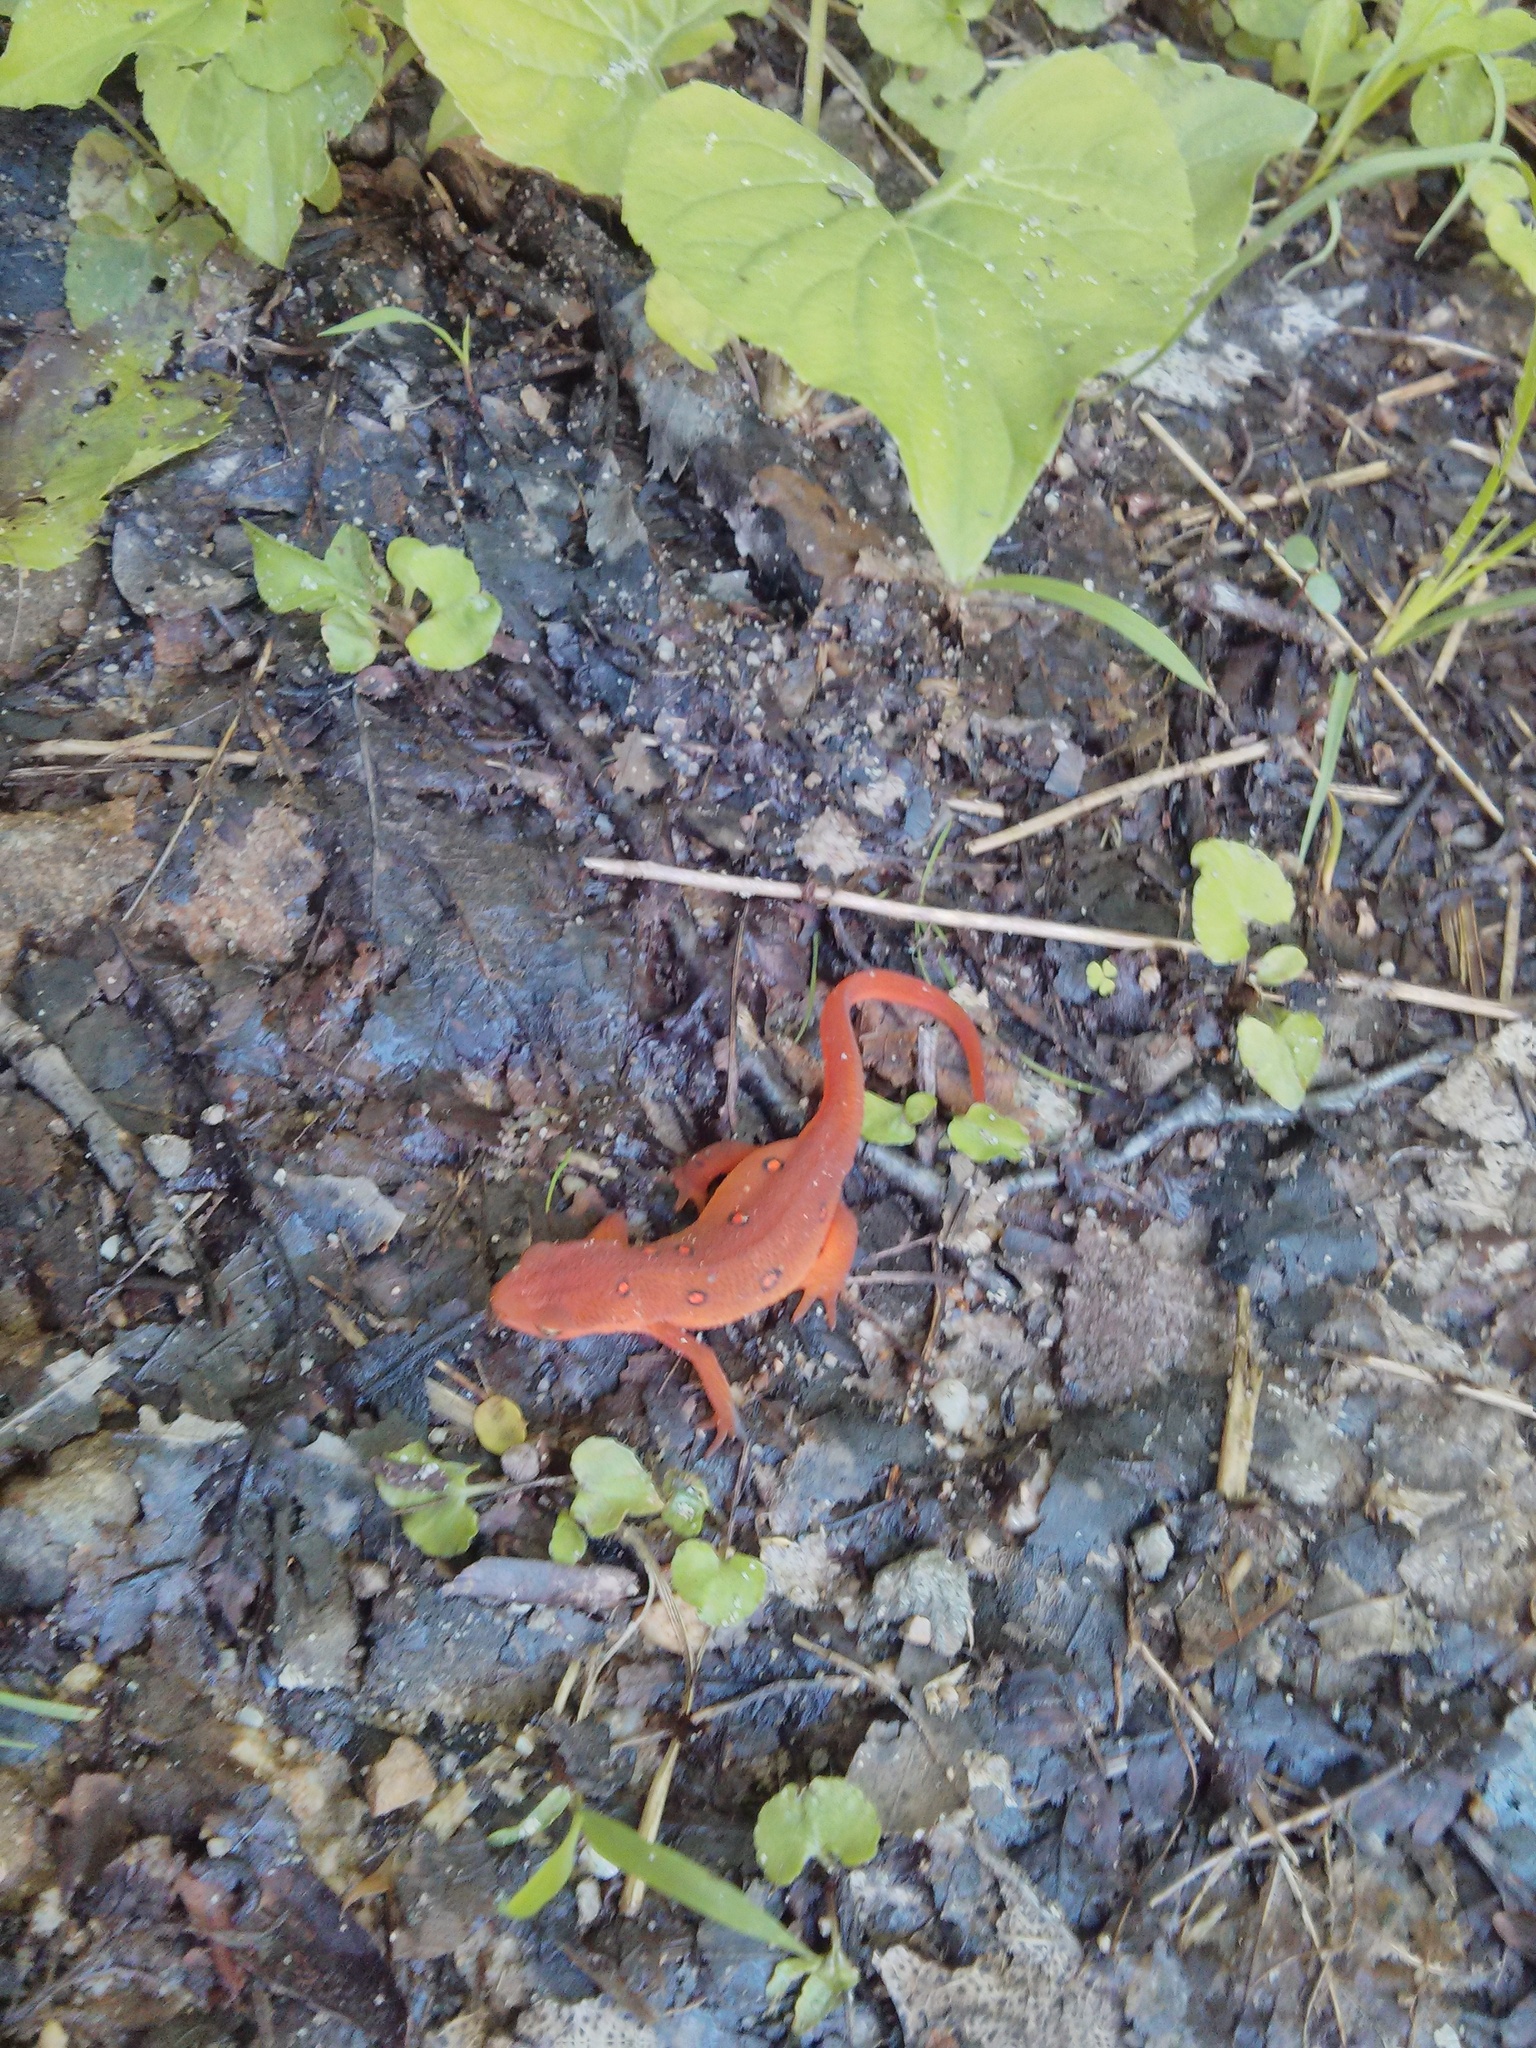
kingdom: Animalia
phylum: Chordata
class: Amphibia
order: Caudata
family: Salamandridae
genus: Notophthalmus
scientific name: Notophthalmus viridescens
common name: Eastern newt
